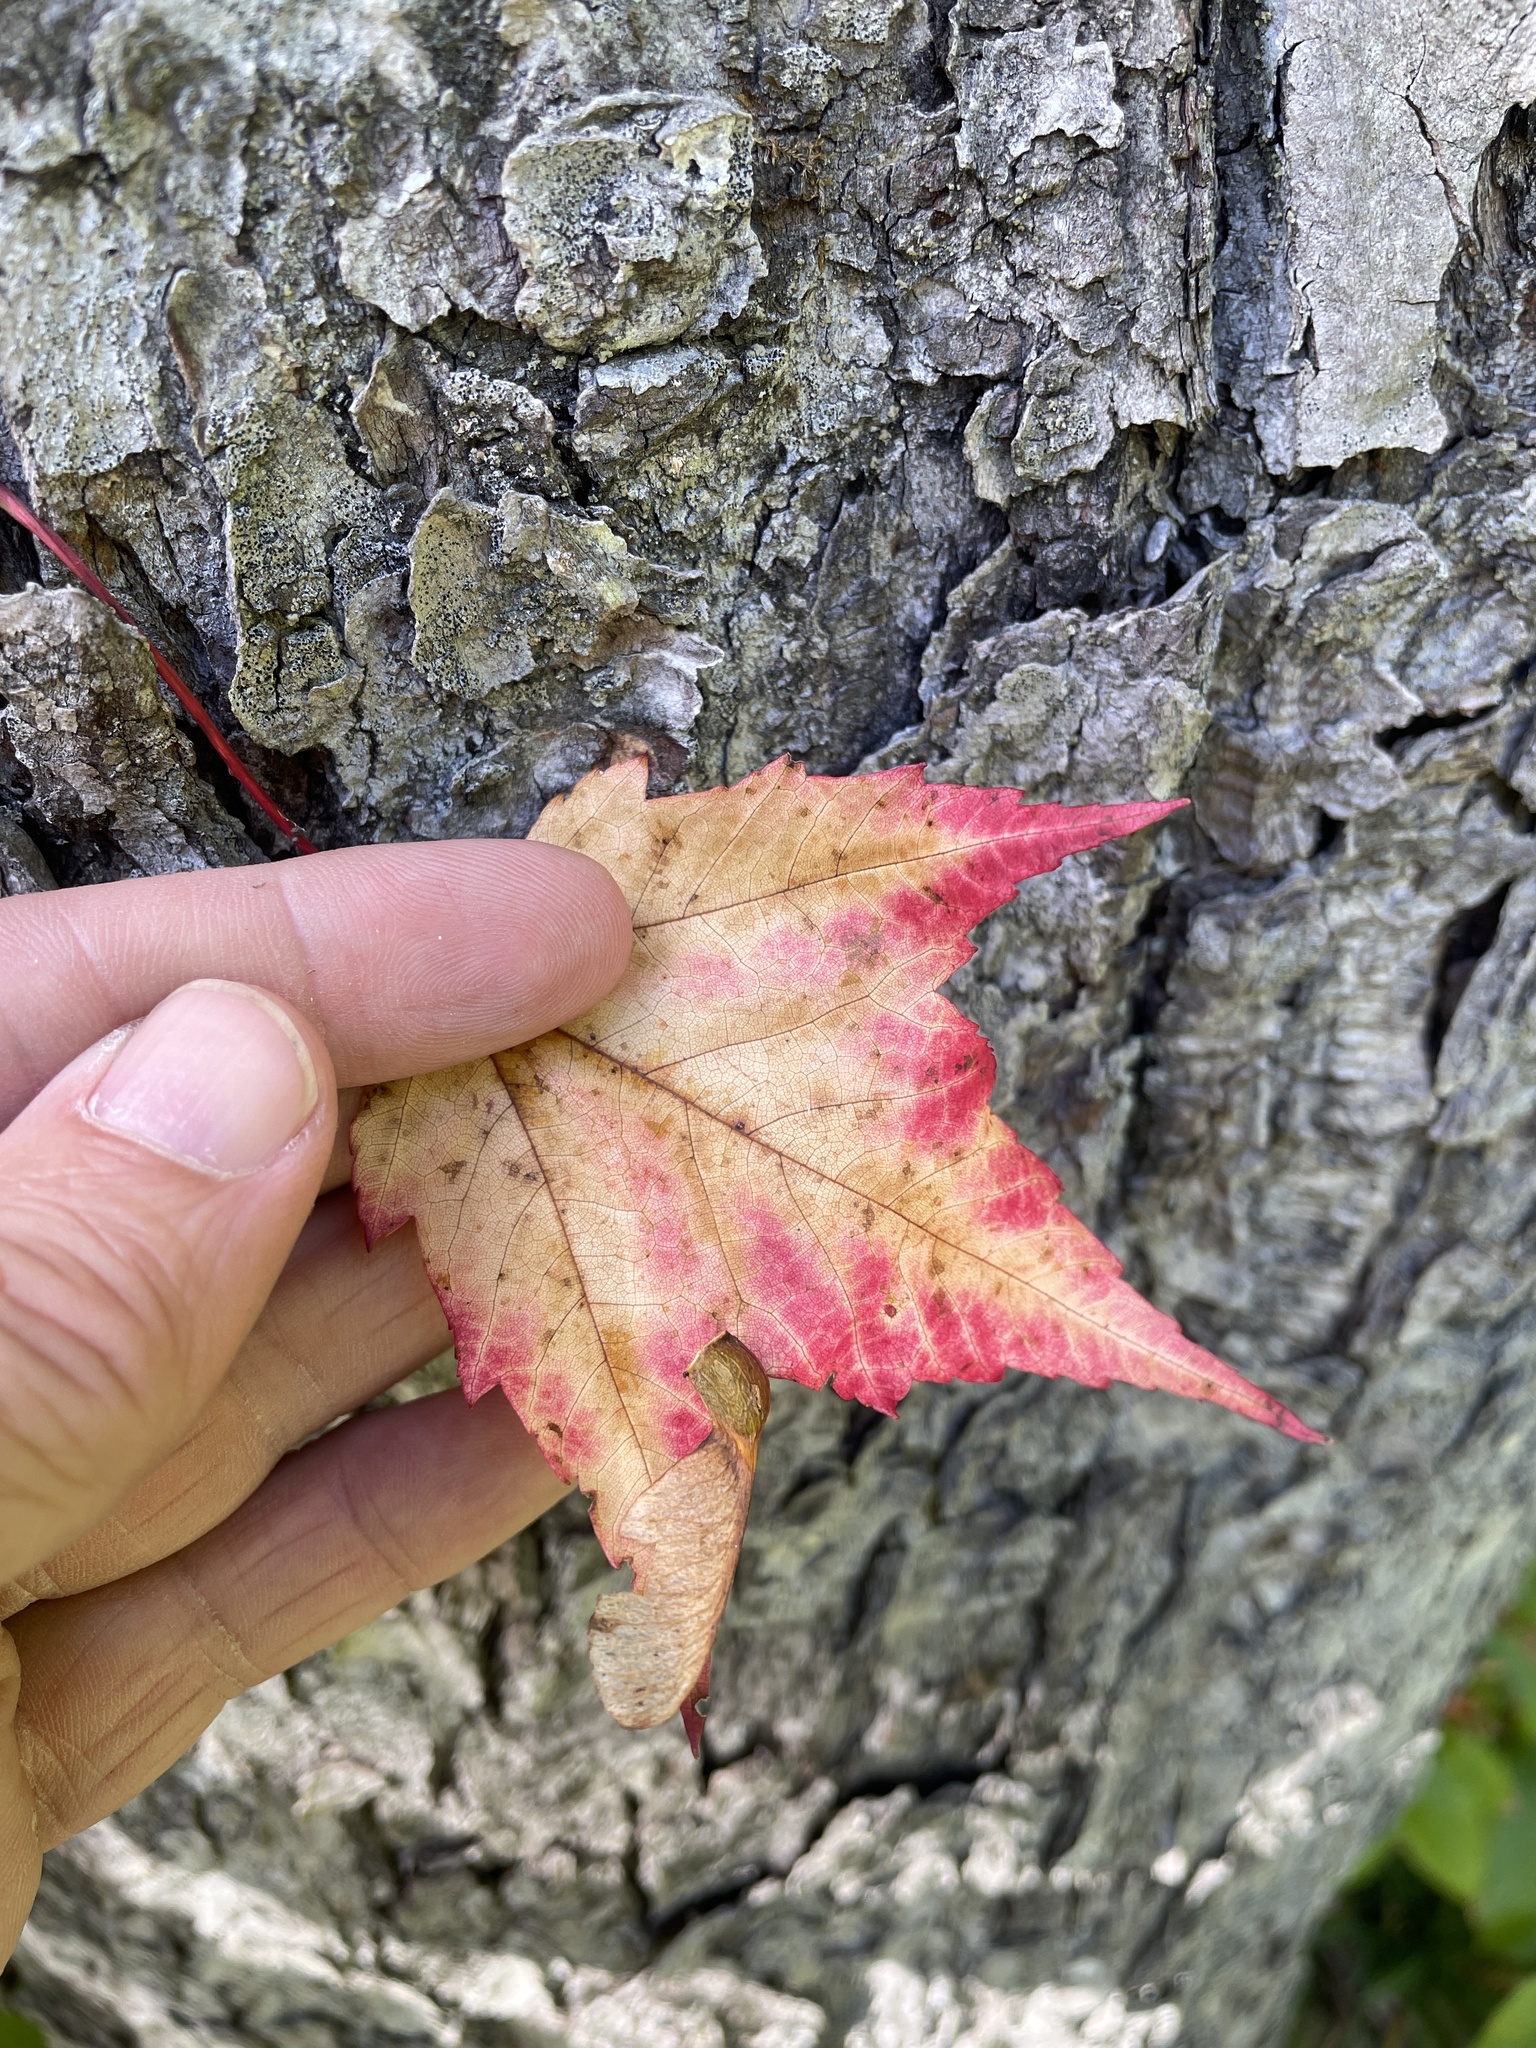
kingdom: Plantae
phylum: Tracheophyta
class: Magnoliopsida
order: Sapindales
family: Sapindaceae
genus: Acer
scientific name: Acer rubrum
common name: Red maple
